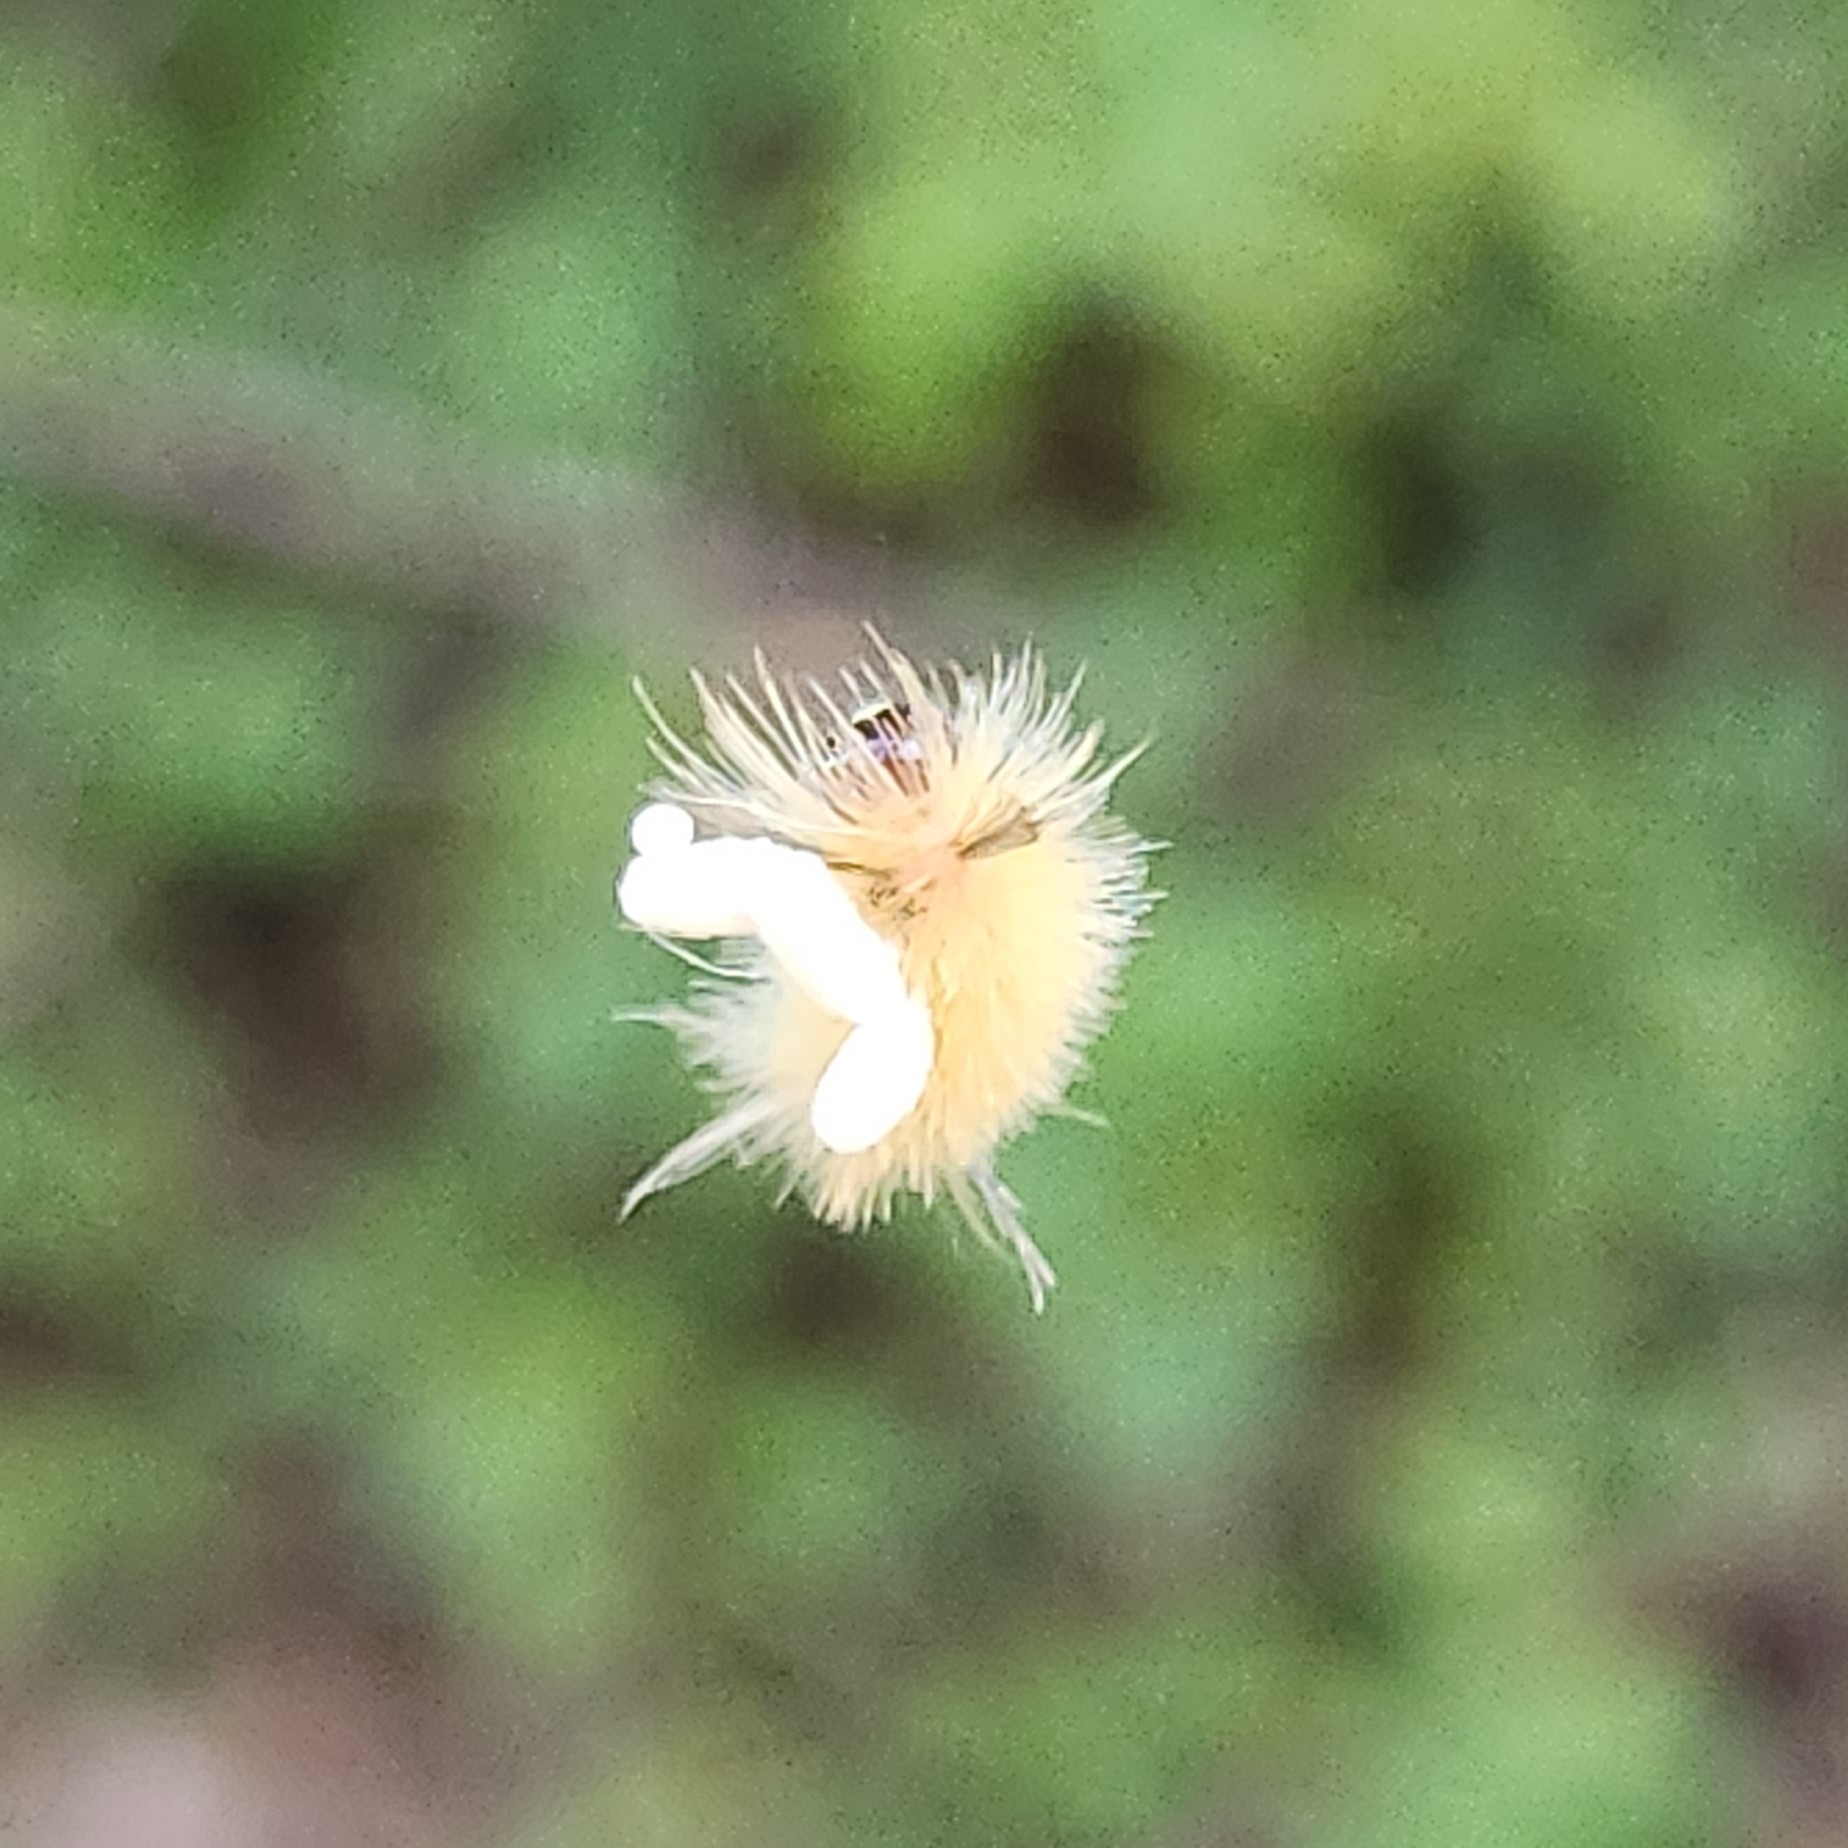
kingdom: Animalia
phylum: Arthropoda
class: Insecta
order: Lepidoptera
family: Erebidae
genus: Halysidota
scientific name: Halysidota tessellaris
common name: Banded tussock moth
